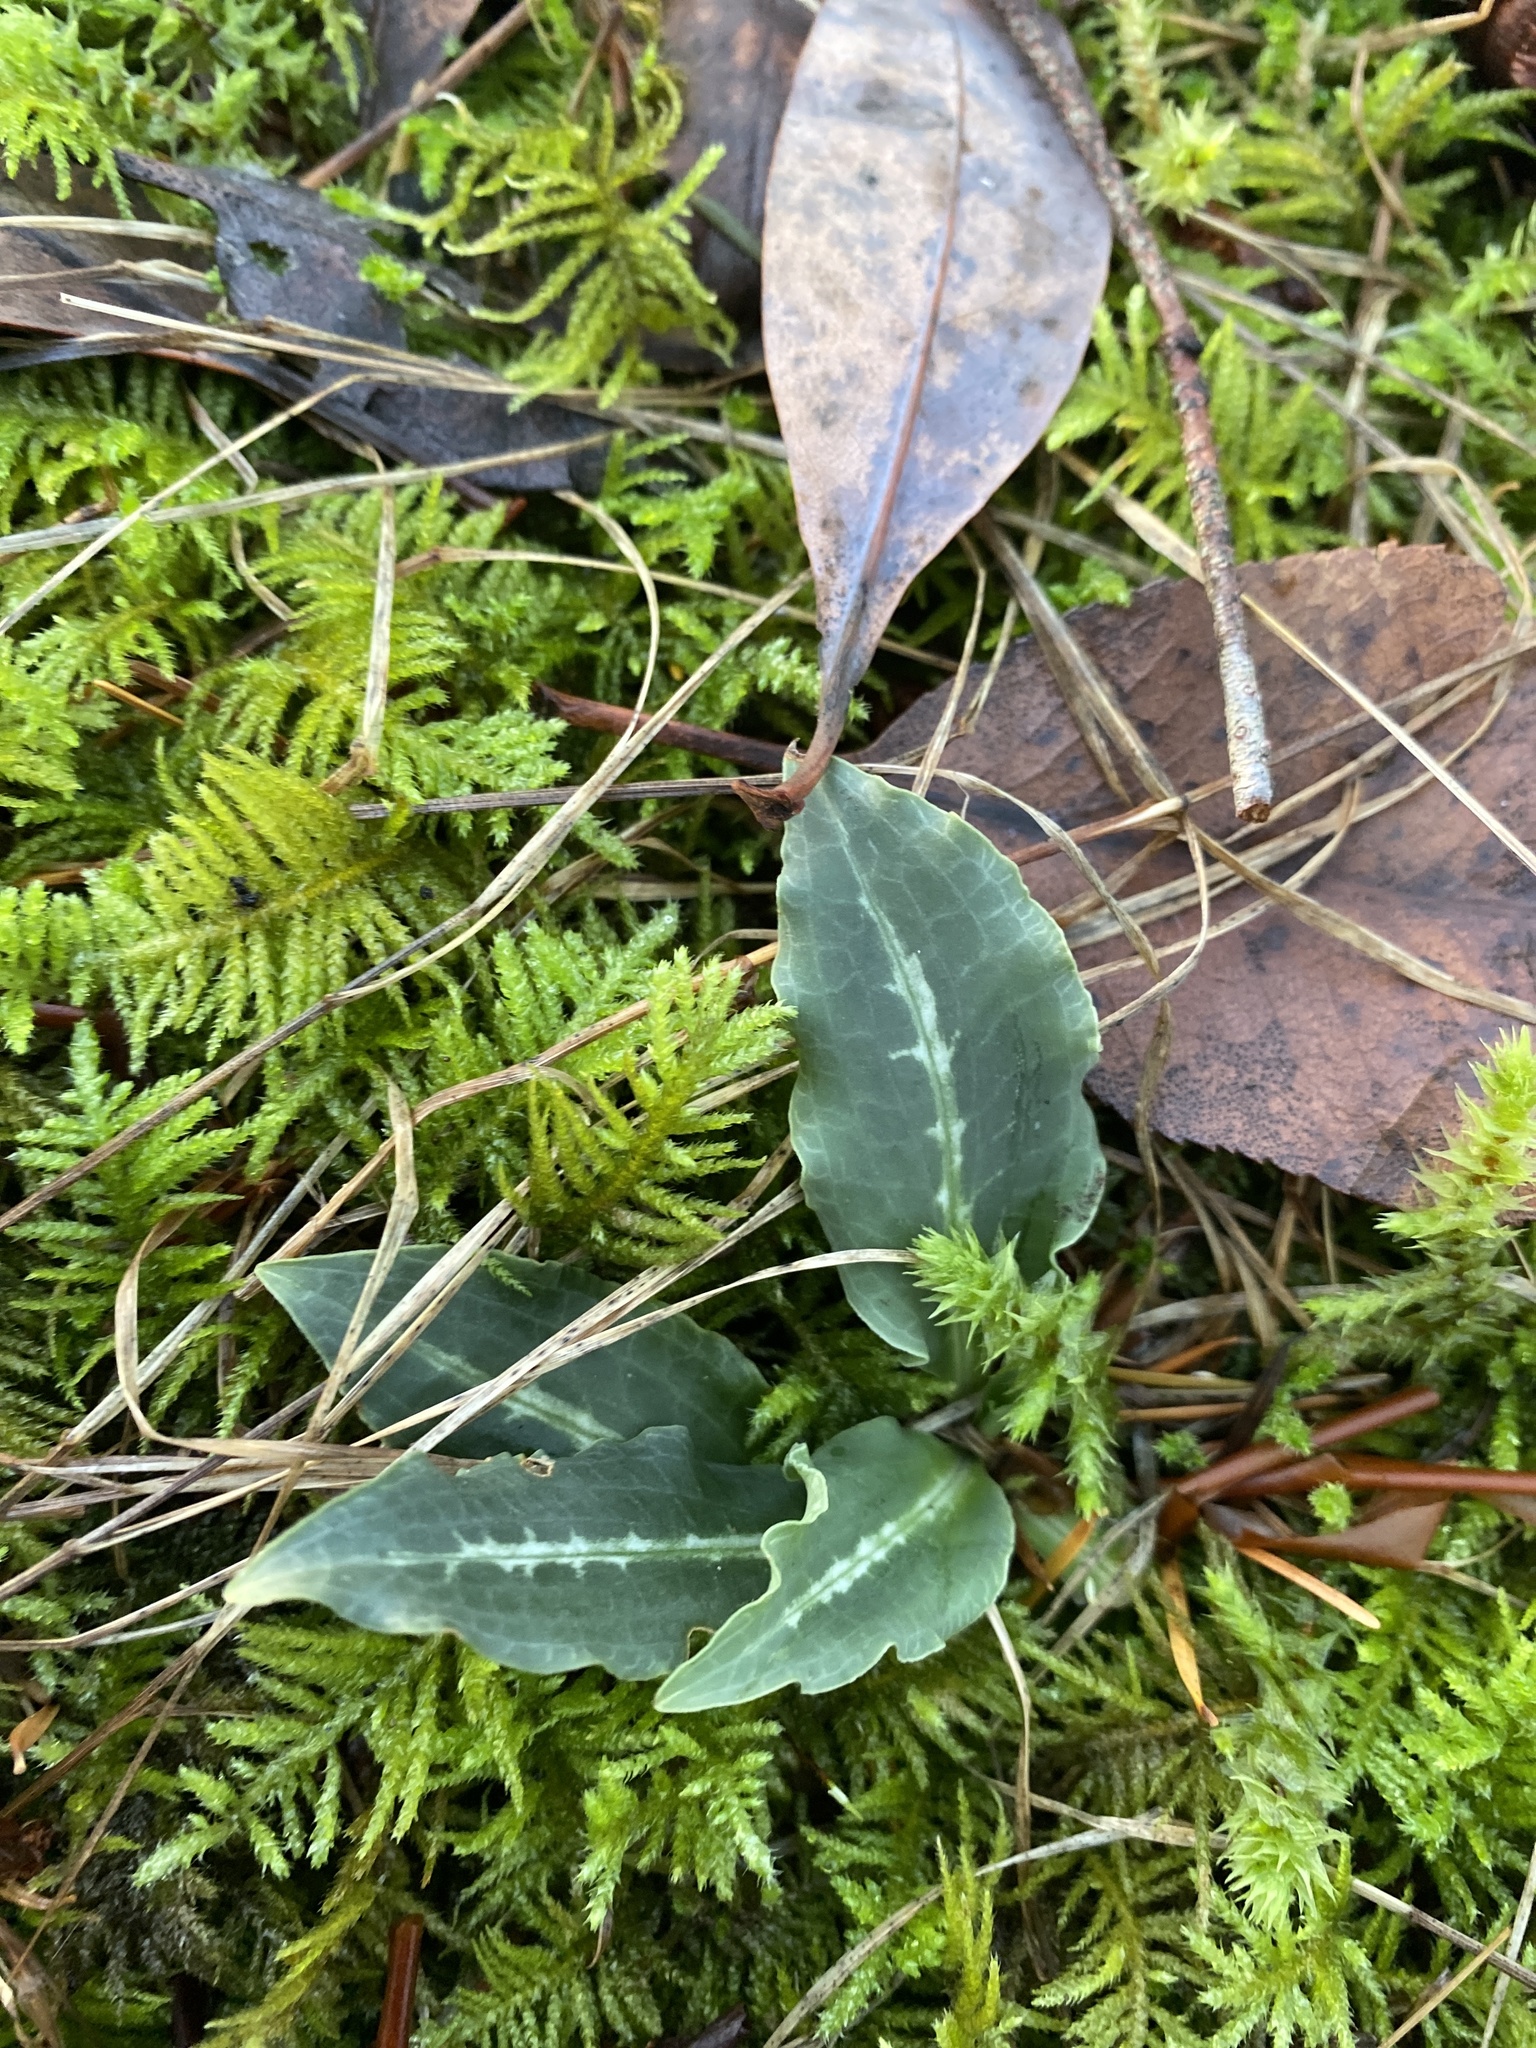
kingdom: Plantae
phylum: Tracheophyta
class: Liliopsida
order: Asparagales
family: Orchidaceae
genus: Goodyera
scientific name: Goodyera oblongifolia
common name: Giant rattlesnake-plantain
